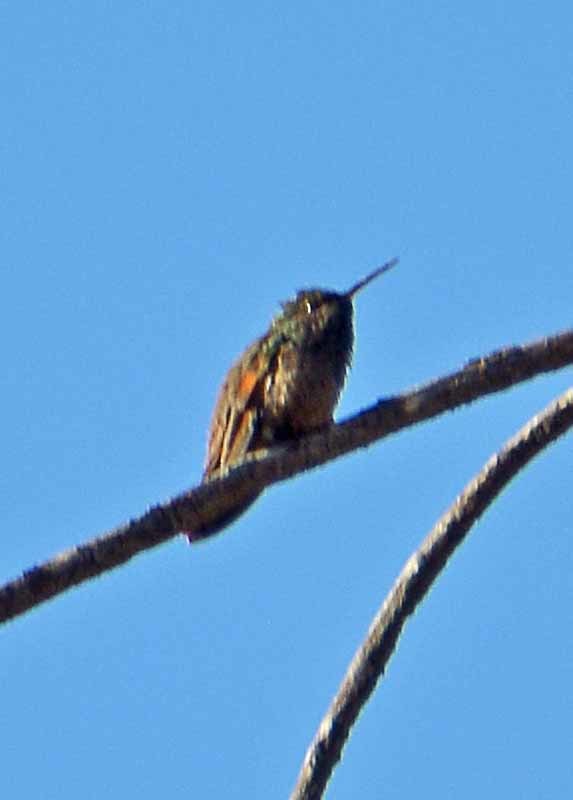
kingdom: Animalia
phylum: Chordata
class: Aves
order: Apodiformes
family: Trochilidae
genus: Saucerottia
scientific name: Saucerottia beryllina
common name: Berylline hummingbird
